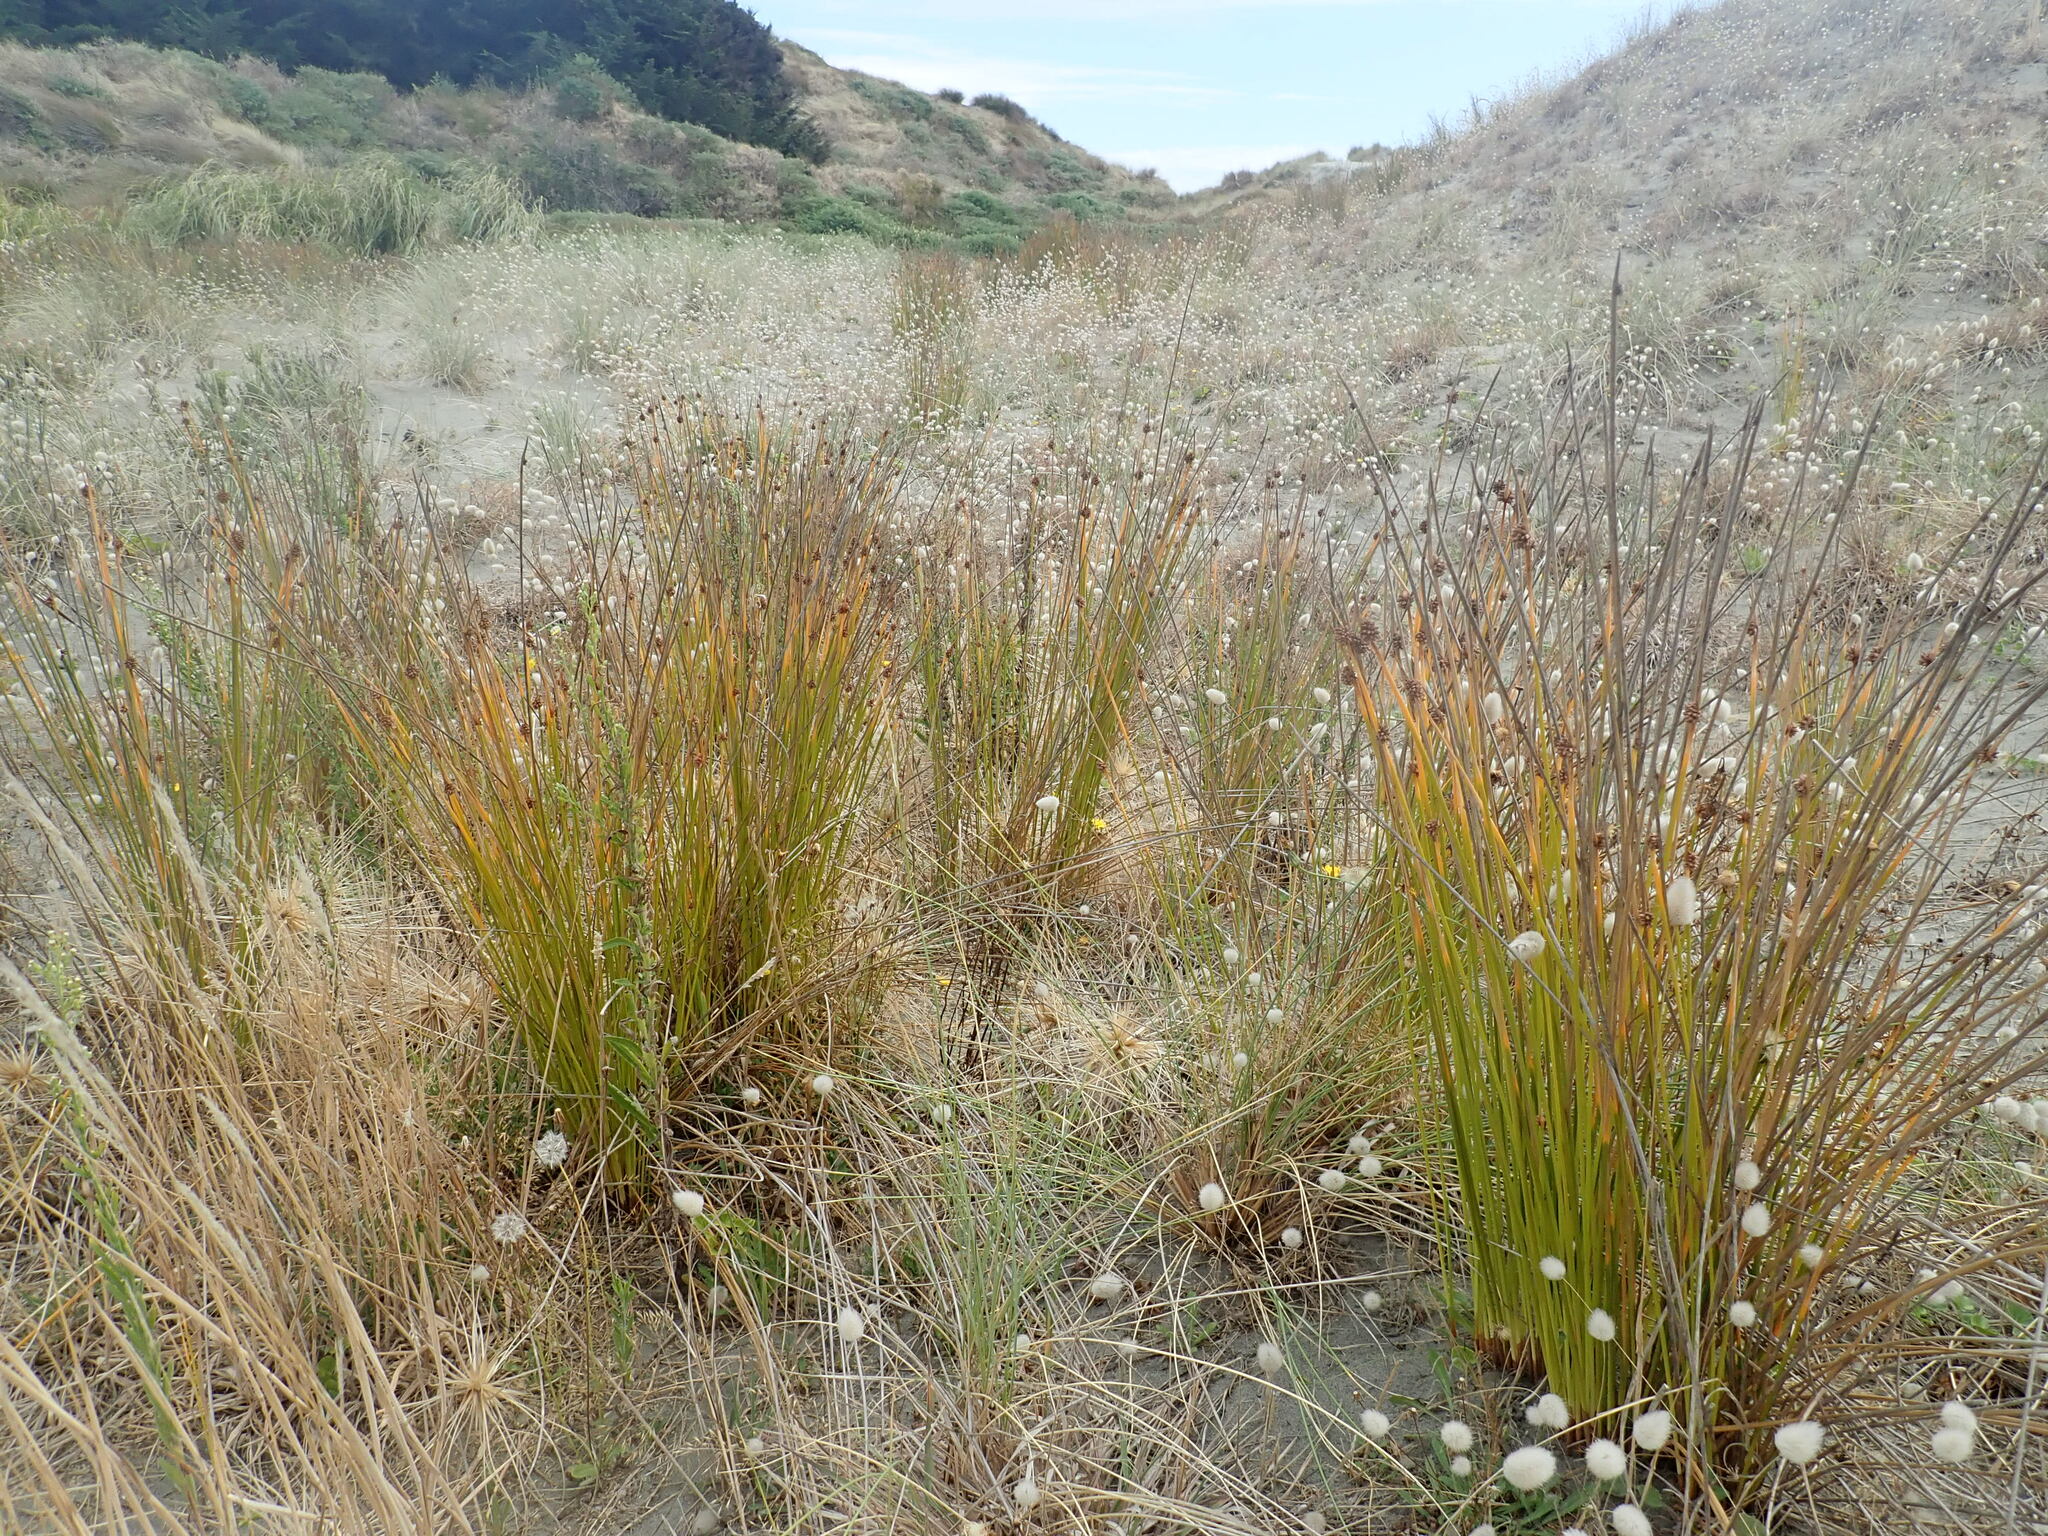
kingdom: Plantae
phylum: Tracheophyta
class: Liliopsida
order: Poales
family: Cyperaceae
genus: Ficinia
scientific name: Ficinia nodosa
